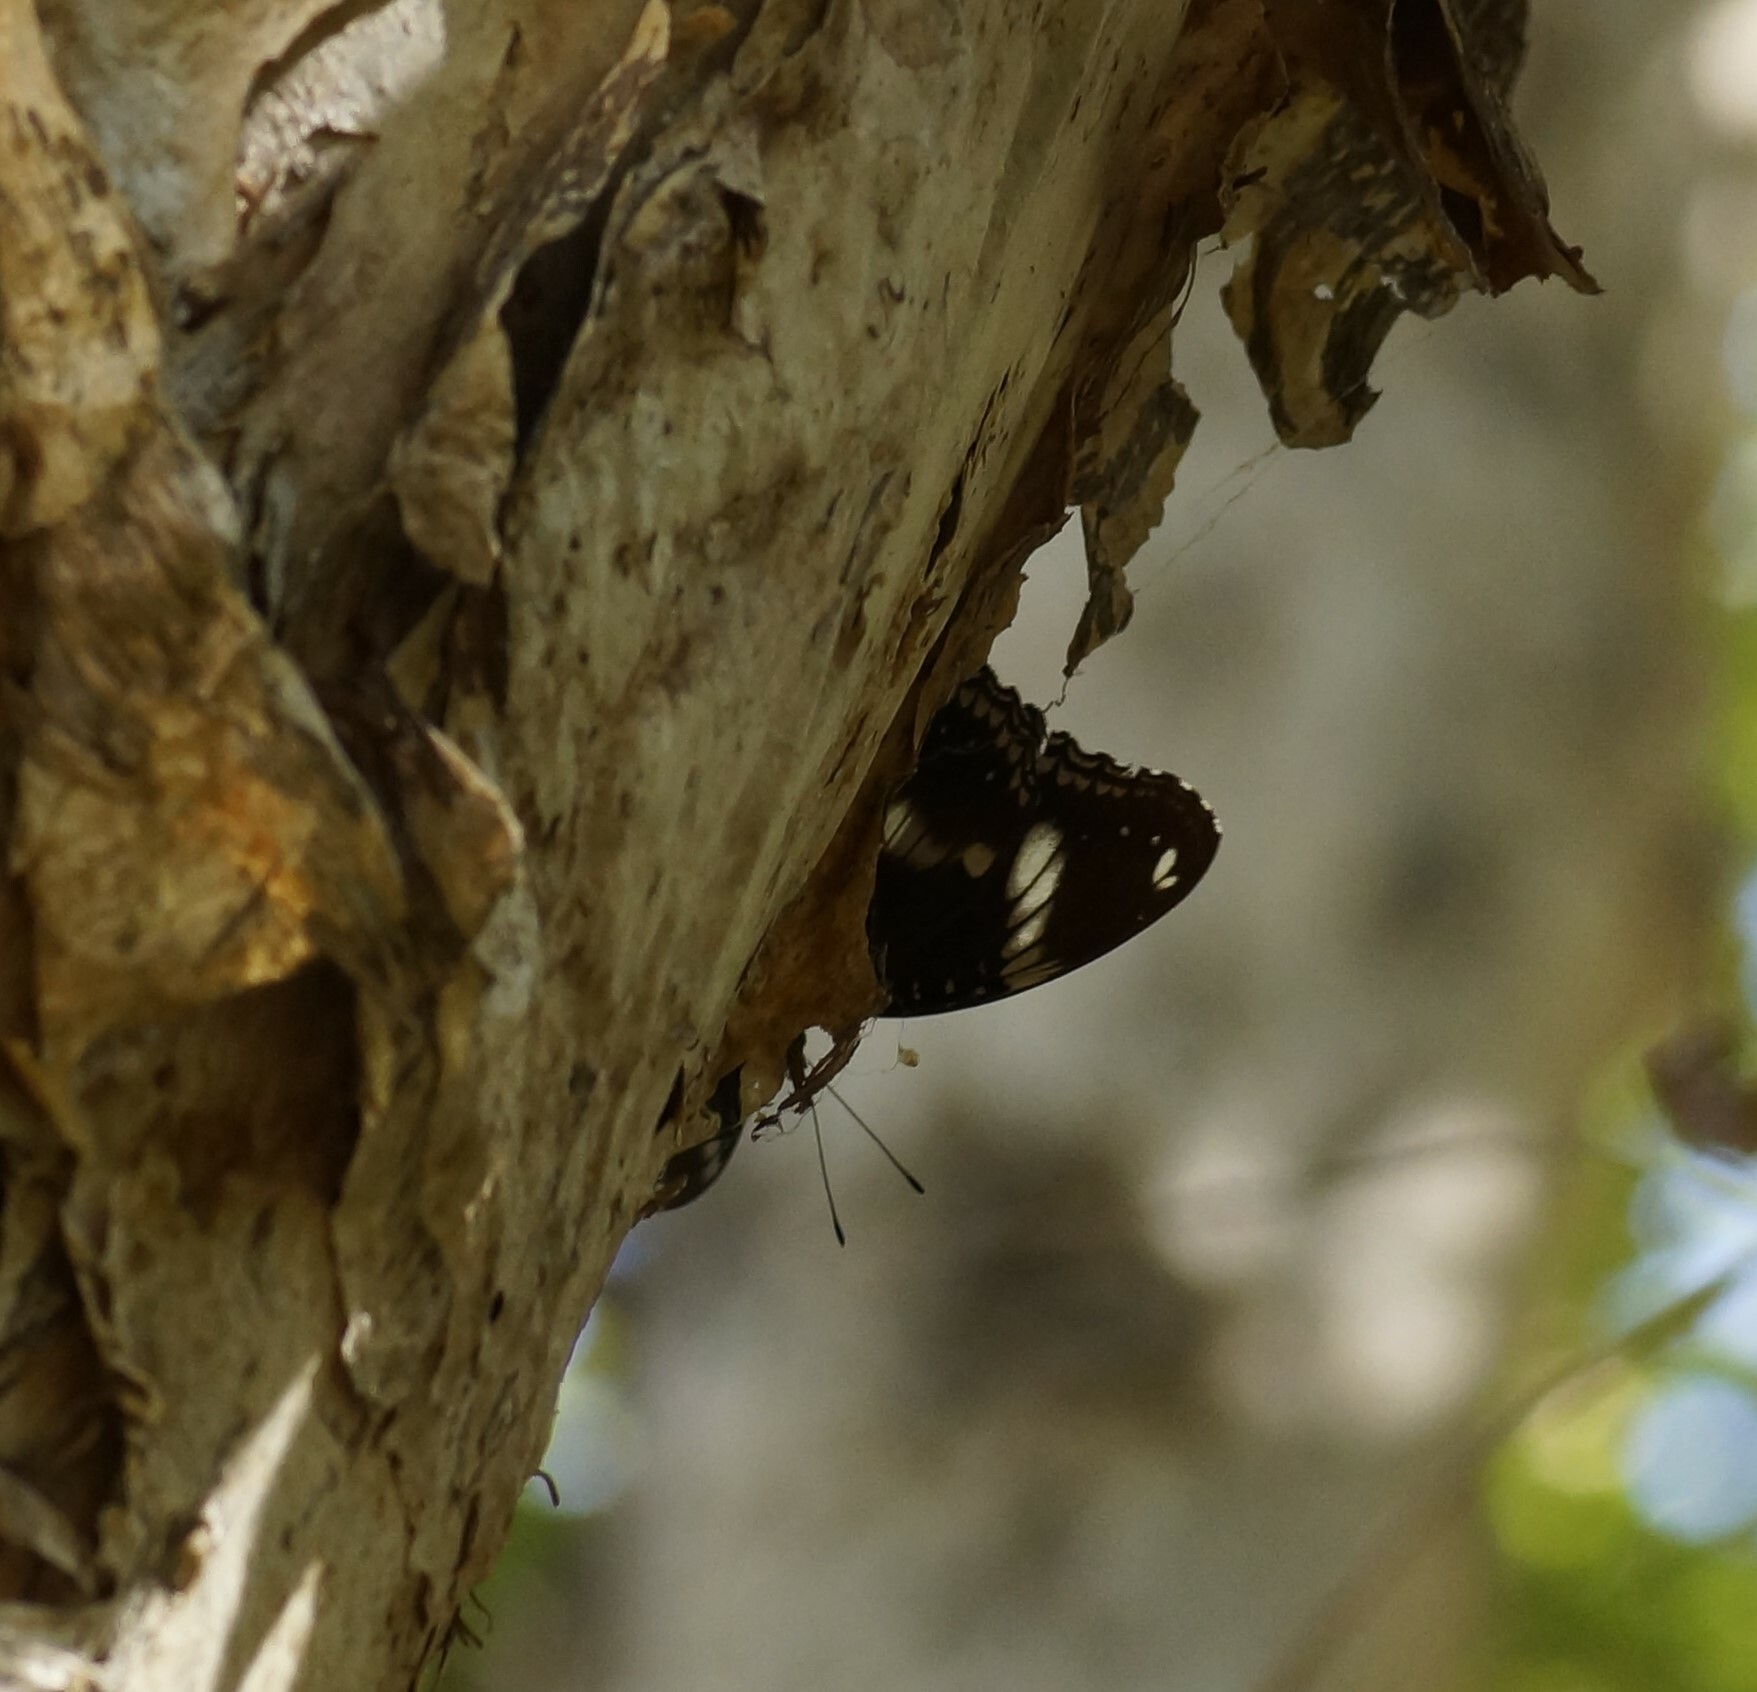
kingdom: Animalia
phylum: Arthropoda
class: Insecta
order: Lepidoptera
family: Nymphalidae
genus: Hypolimnas
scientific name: Hypolimnas bolina
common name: Great eggfly
